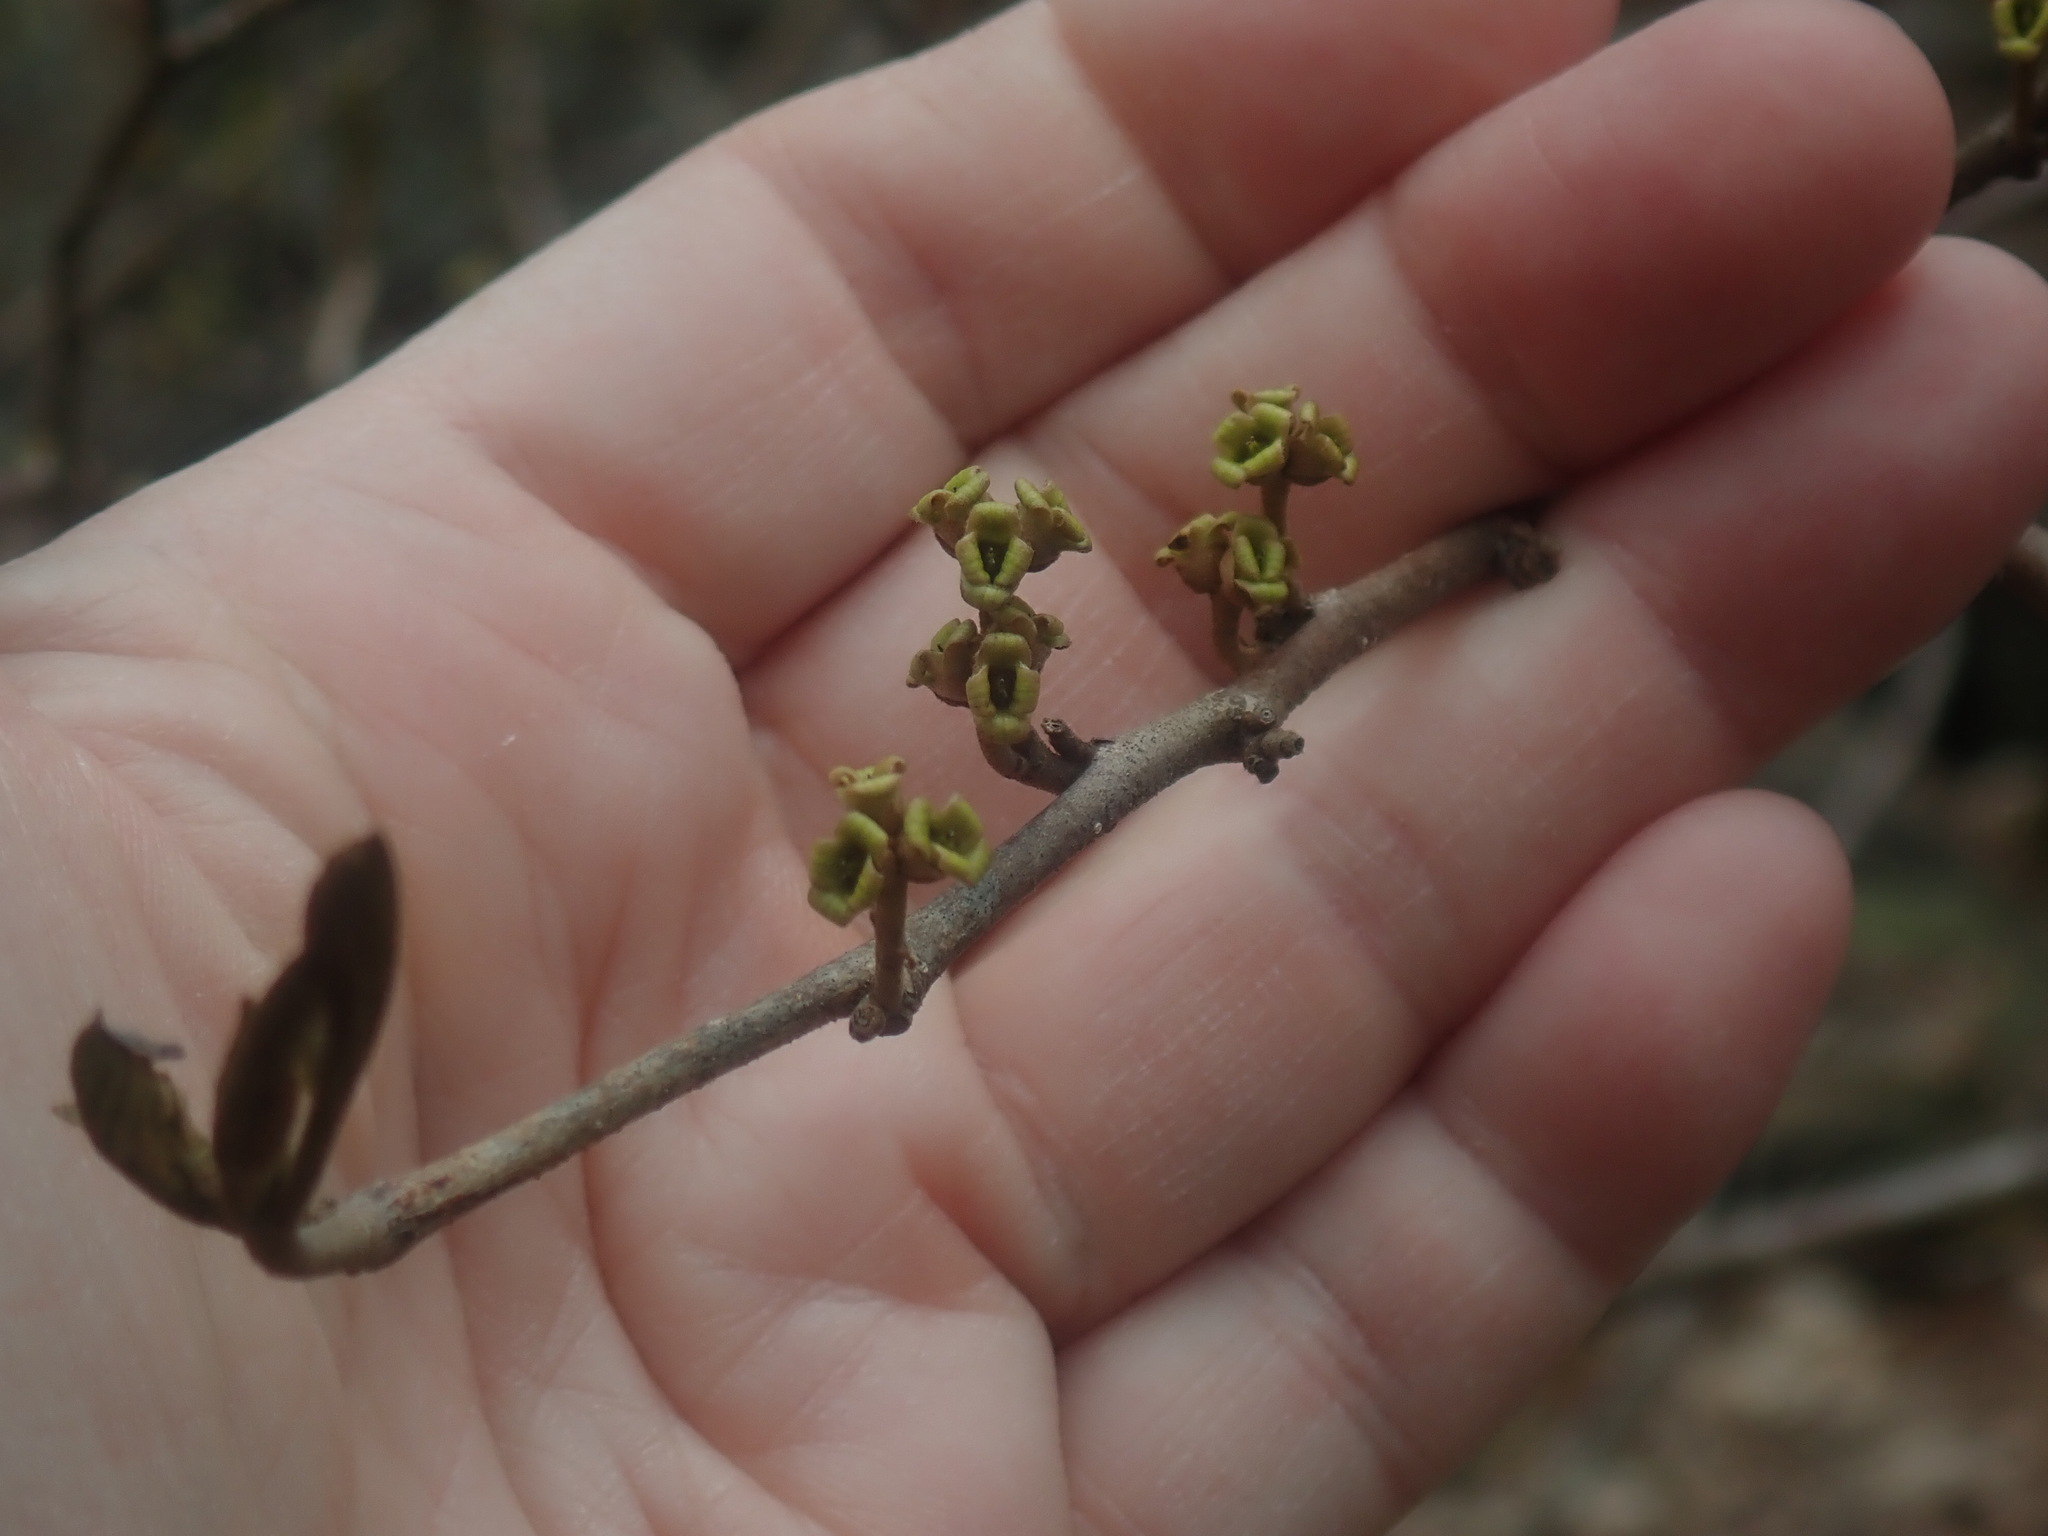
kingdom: Plantae
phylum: Tracheophyta
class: Magnoliopsida
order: Saxifragales
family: Hamamelidaceae
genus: Hamamelis
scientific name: Hamamelis virginiana
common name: Witch-hazel
